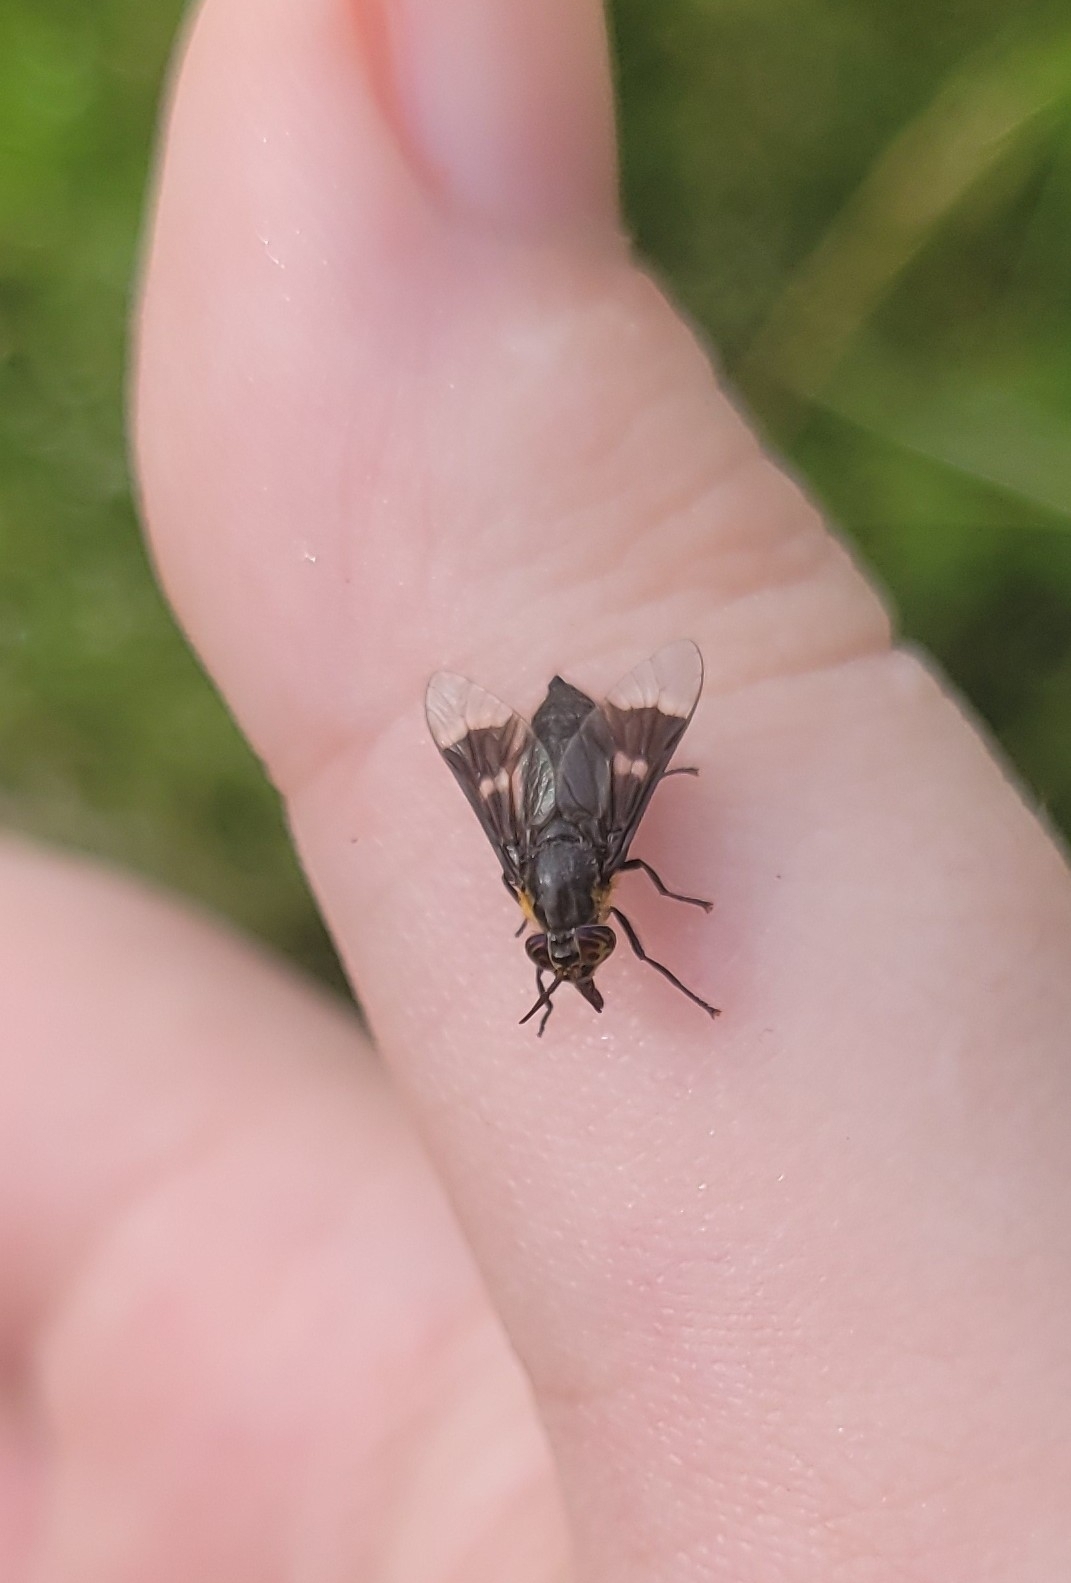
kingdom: Animalia
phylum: Arthropoda
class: Insecta
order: Diptera
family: Tabanidae
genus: Chrysops
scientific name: Chrysops cincticornis
